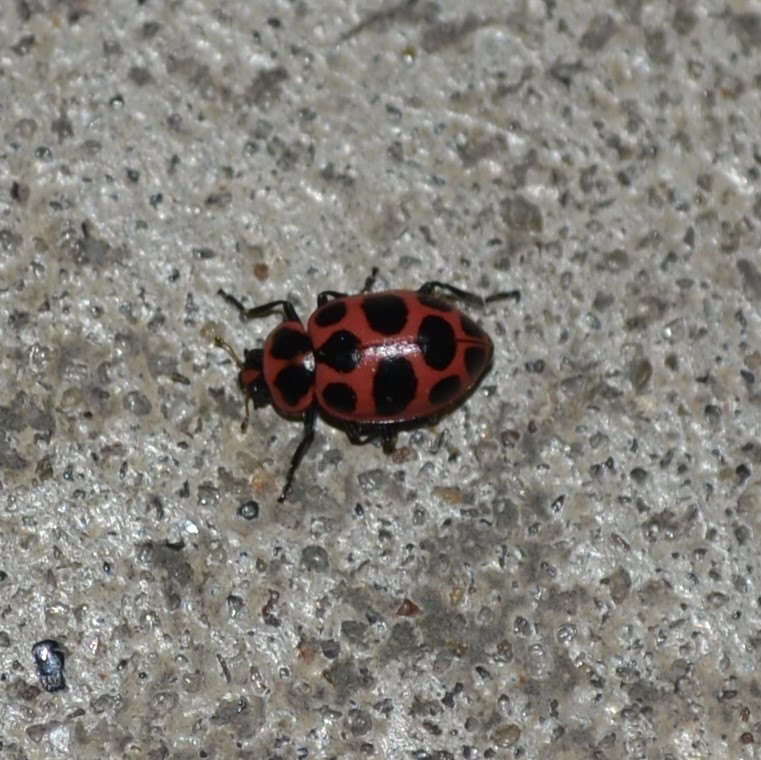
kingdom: Animalia
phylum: Arthropoda
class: Insecta
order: Coleoptera
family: Coccinellidae
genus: Coleomegilla
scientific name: Coleomegilla maculata
